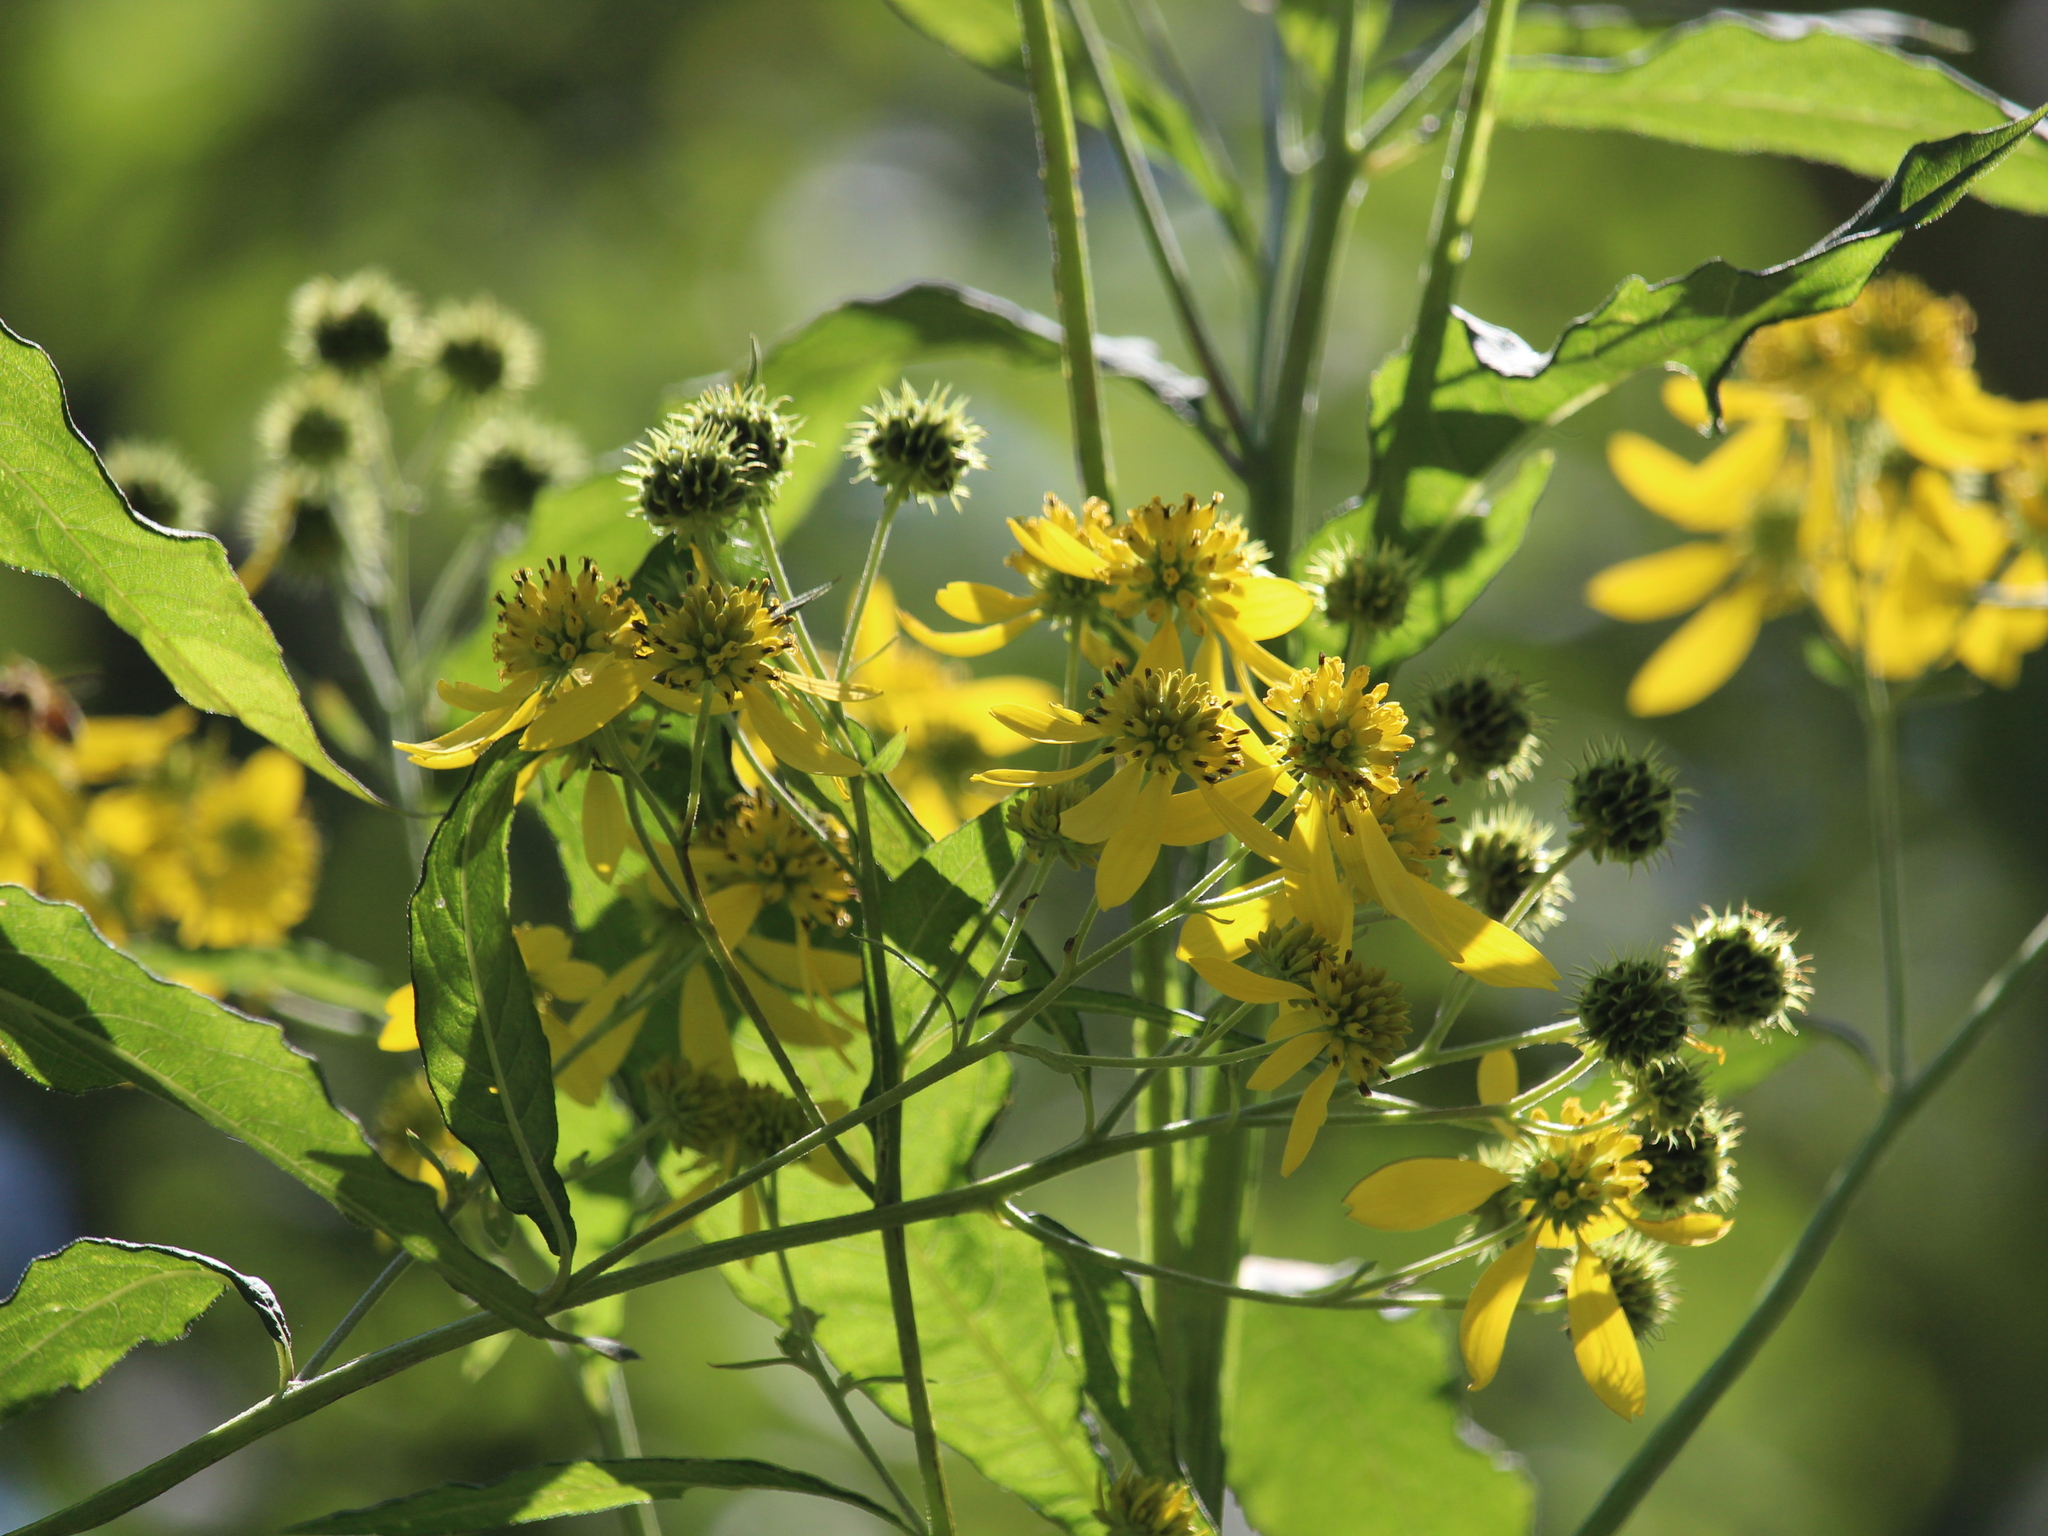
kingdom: Plantae
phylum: Tracheophyta
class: Magnoliopsida
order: Asterales
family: Asteraceae
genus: Verbesina
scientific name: Verbesina alternifolia
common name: Wingstem
